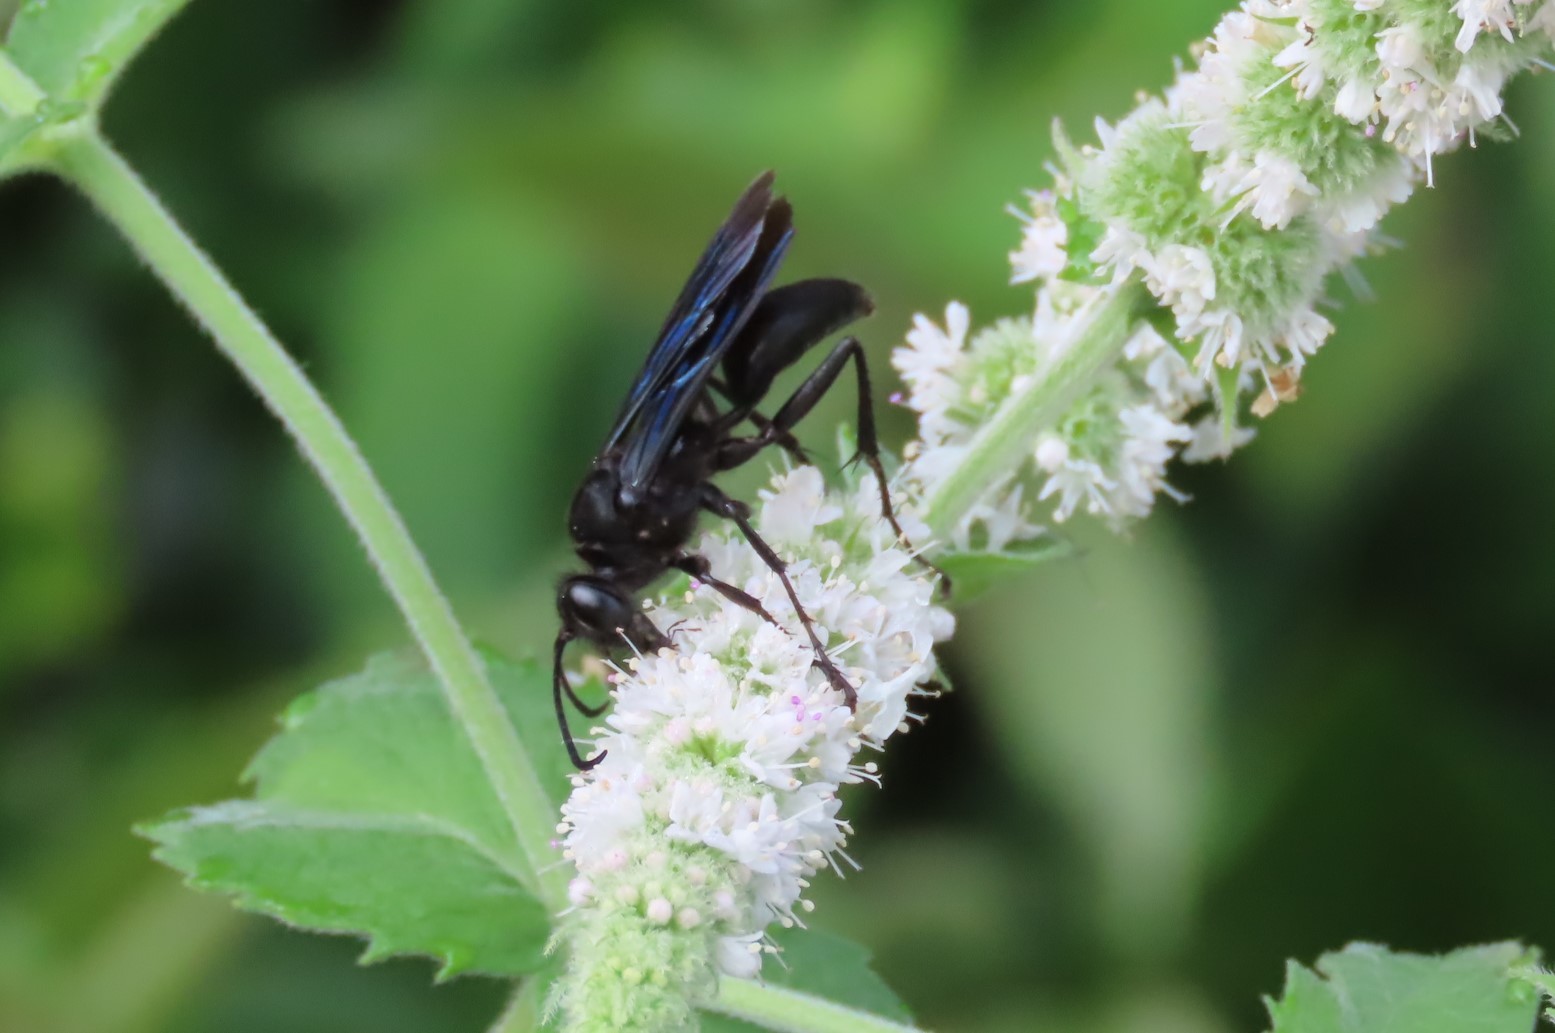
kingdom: Animalia
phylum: Arthropoda
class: Insecta
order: Hymenoptera
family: Sphecidae
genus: Sphex
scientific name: Sphex pensylvanicus
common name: Great black digger wasp
